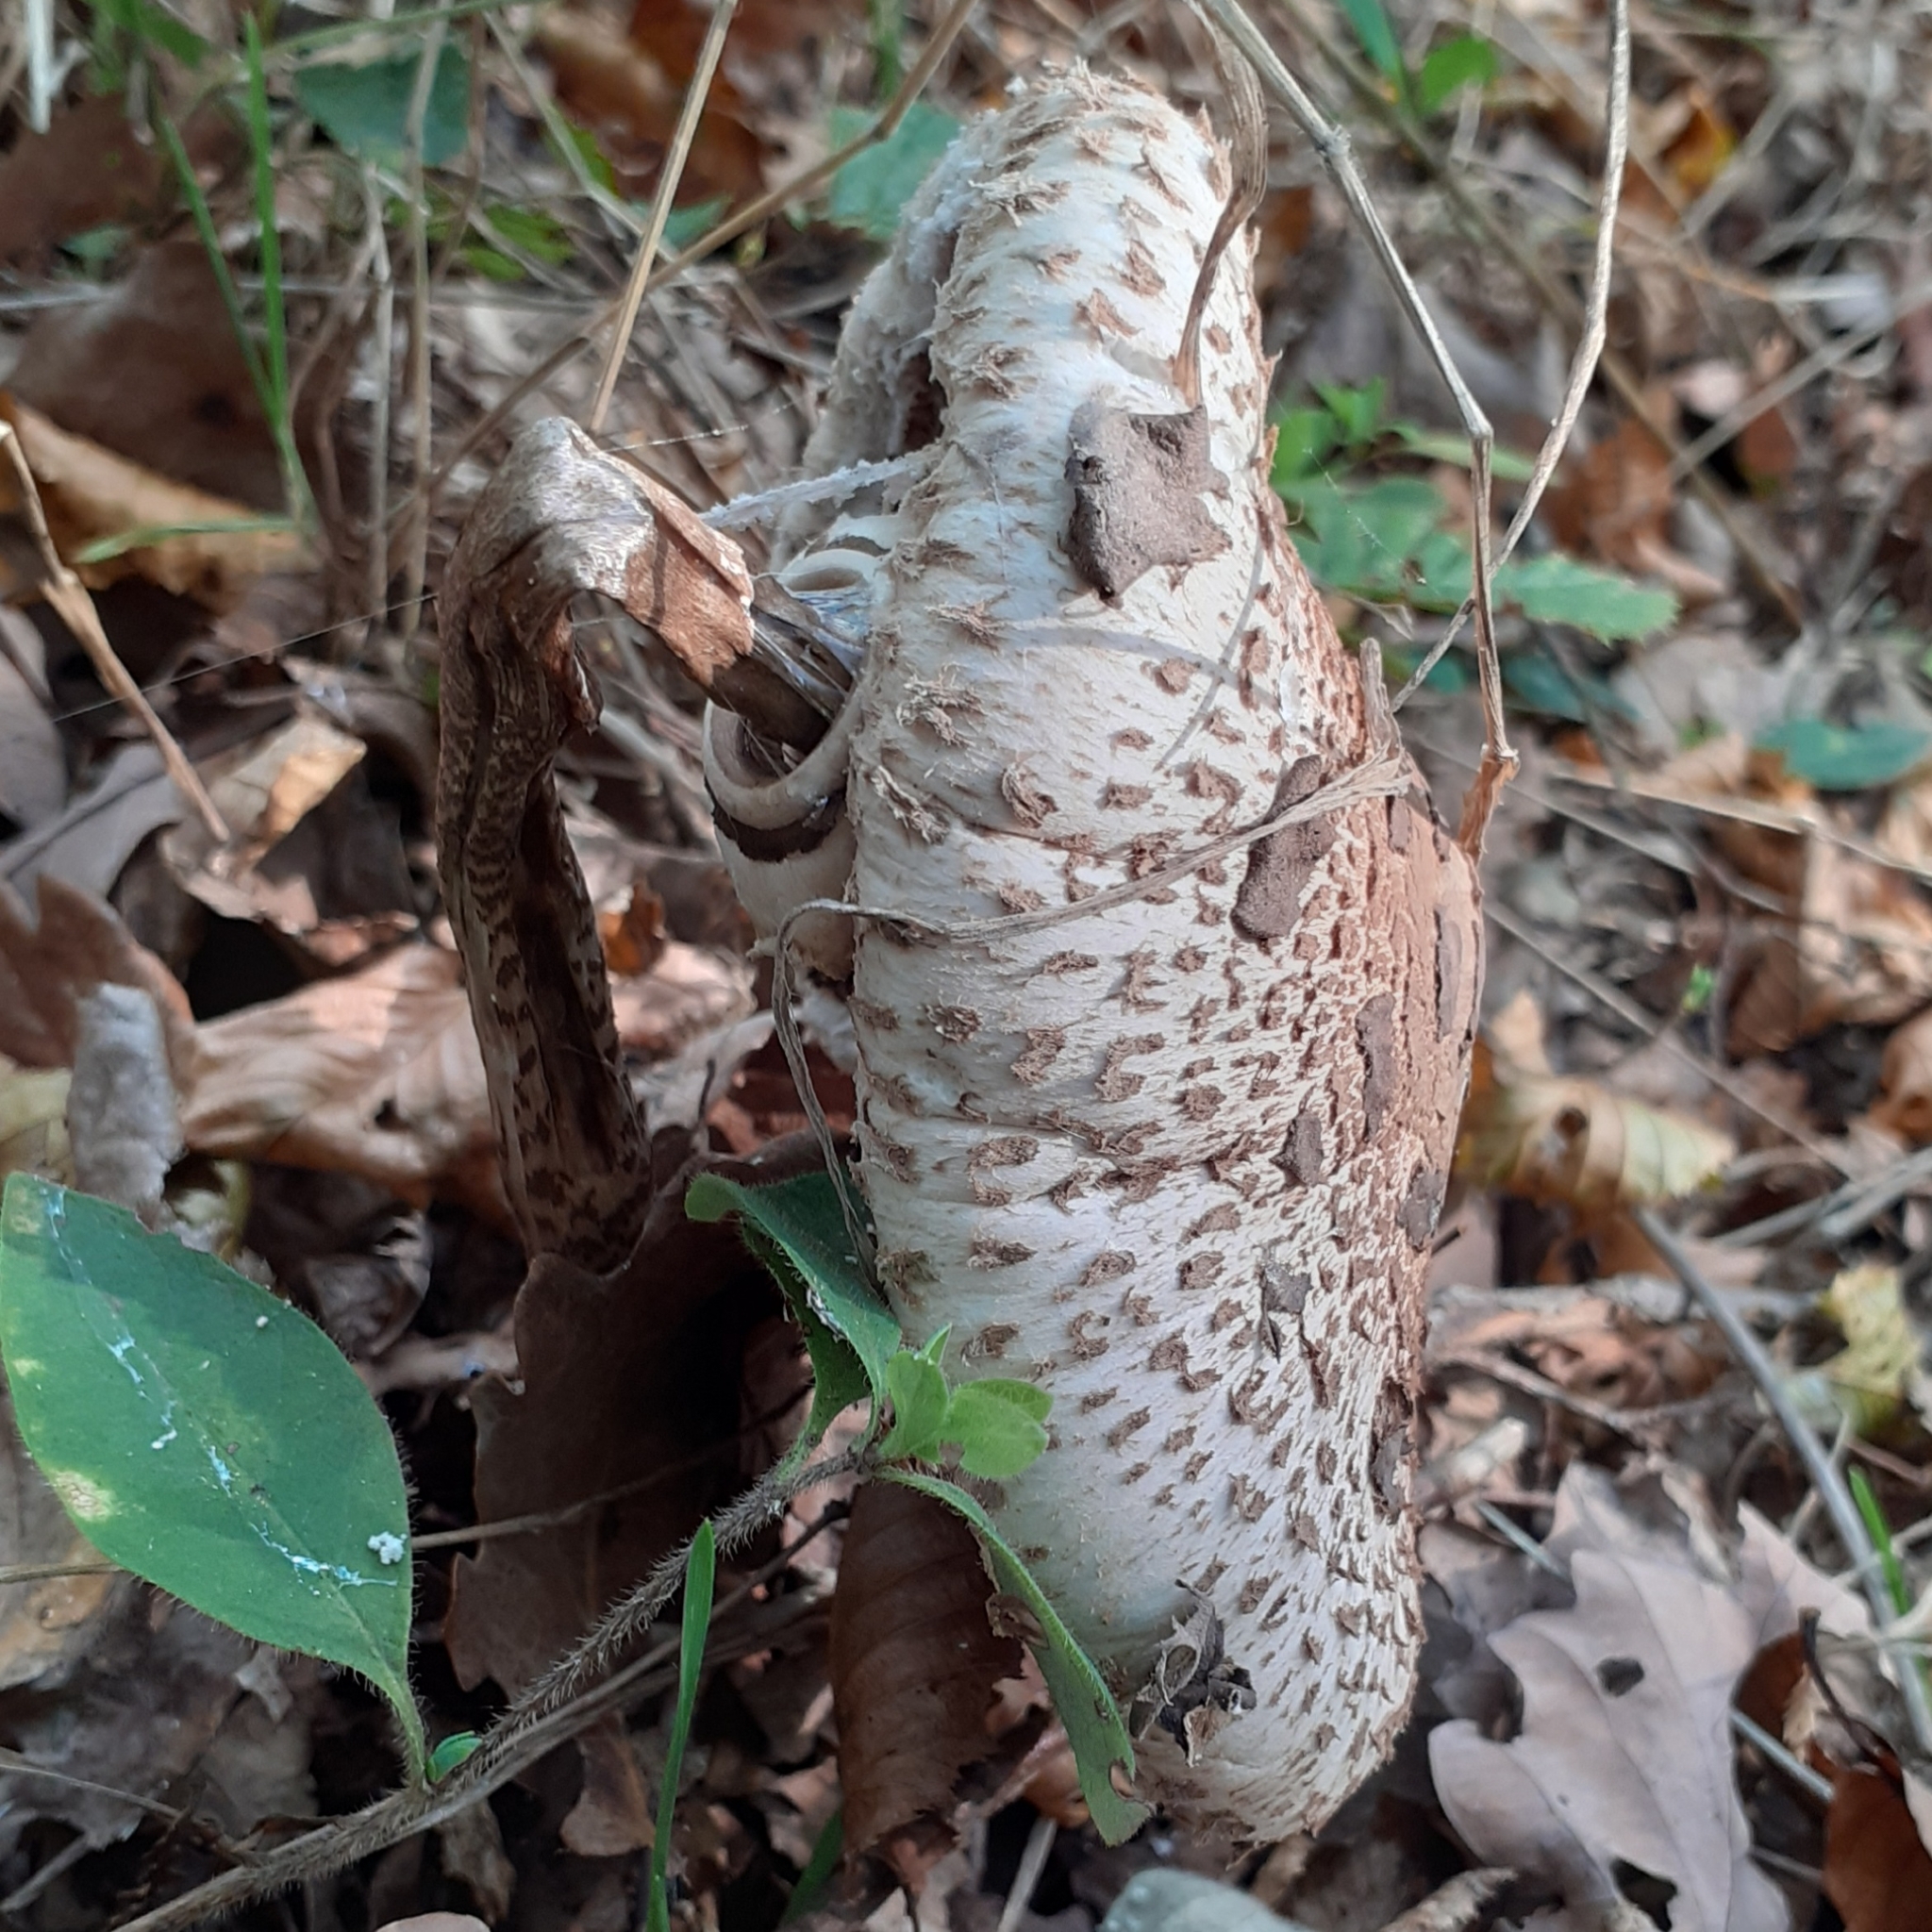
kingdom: Fungi
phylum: Basidiomycota
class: Agaricomycetes
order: Agaricales
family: Agaricaceae
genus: Macrolepiota
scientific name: Macrolepiota procera
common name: Parasol
